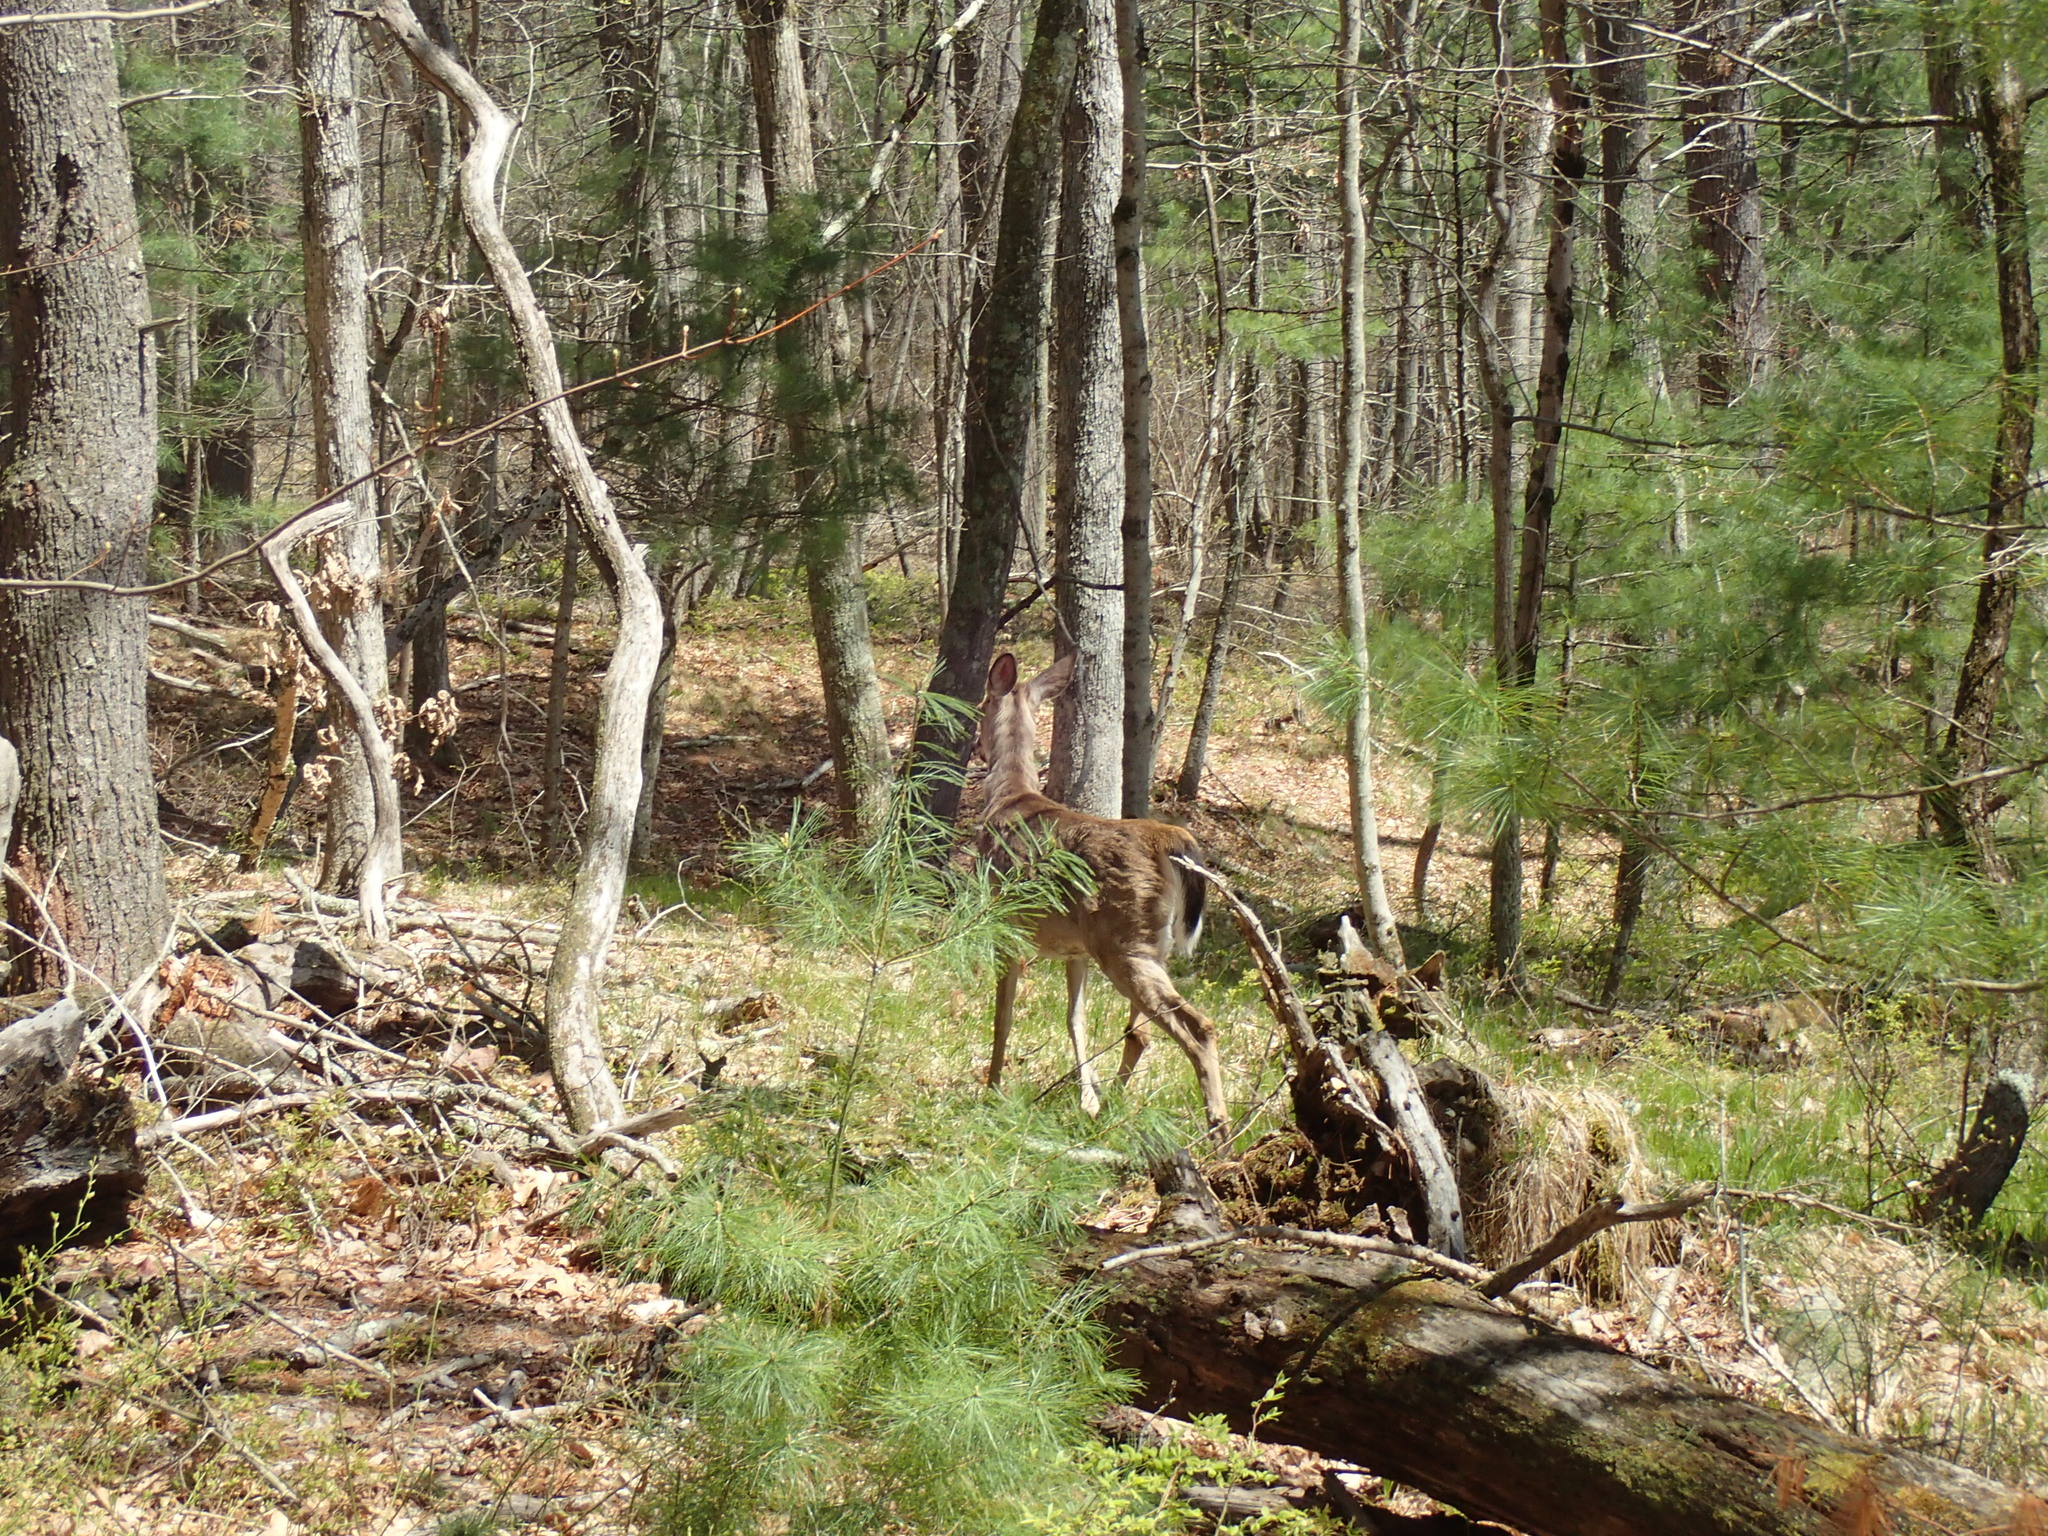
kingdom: Animalia
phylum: Chordata
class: Mammalia
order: Artiodactyla
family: Cervidae
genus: Odocoileus
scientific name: Odocoileus virginianus
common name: White-tailed deer
